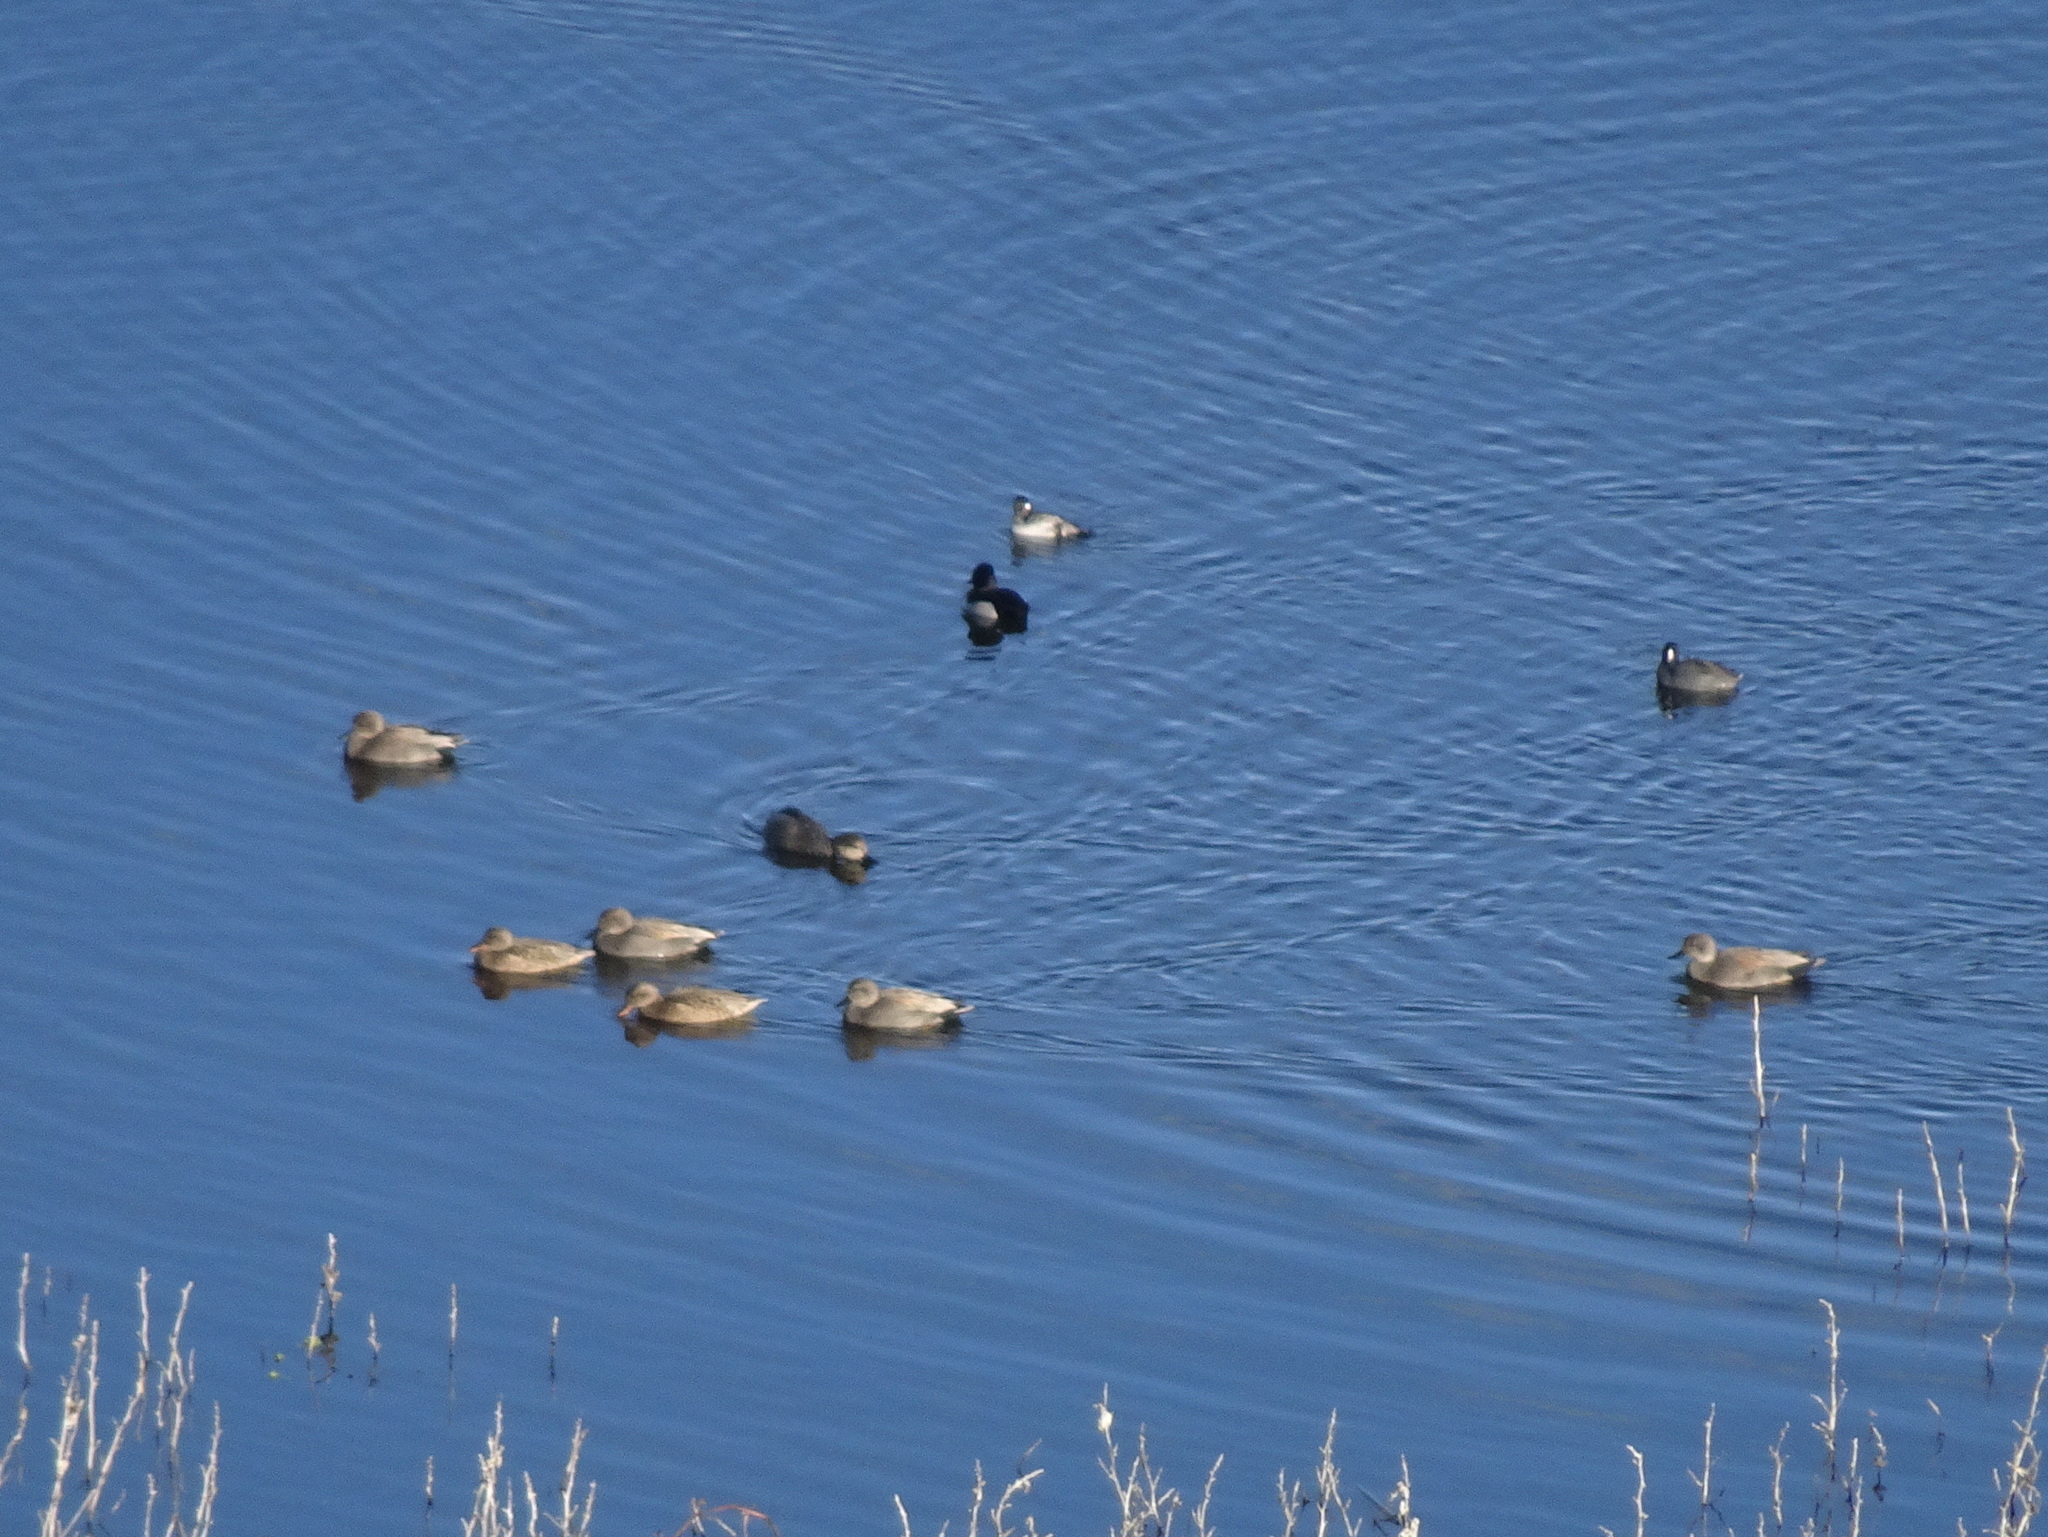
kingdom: Animalia
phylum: Chordata
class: Aves
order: Anseriformes
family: Anatidae
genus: Mareca
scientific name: Mareca strepera
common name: Gadwall
